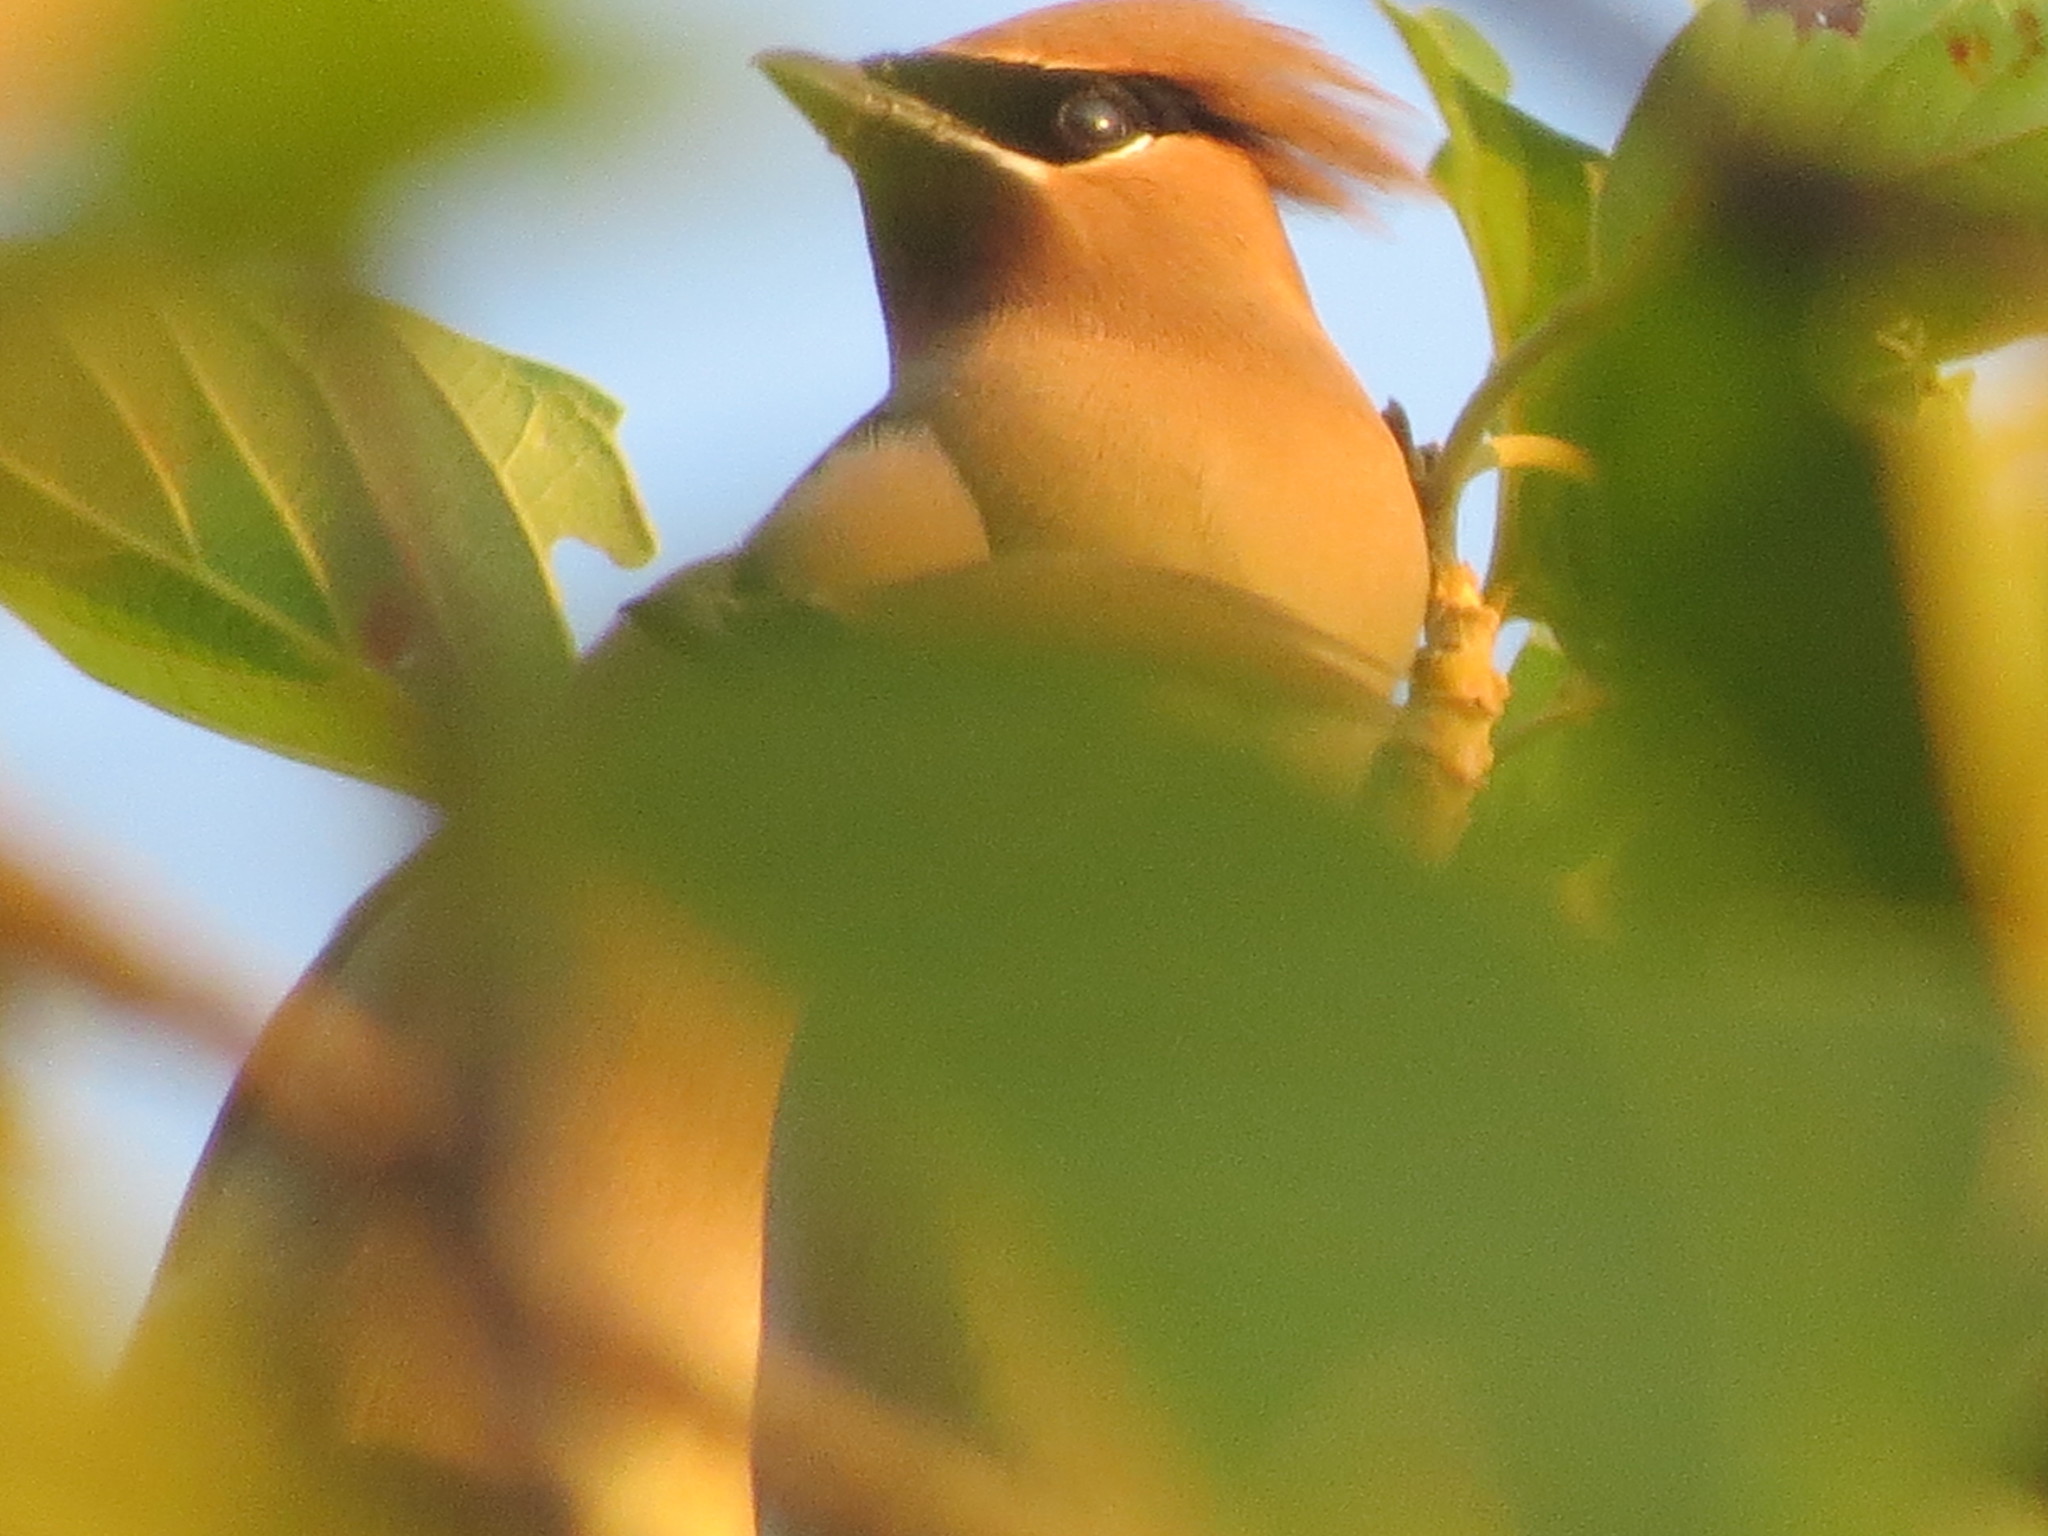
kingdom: Animalia
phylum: Chordata
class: Aves
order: Passeriformes
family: Bombycillidae
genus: Bombycilla
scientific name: Bombycilla cedrorum
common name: Cedar waxwing
